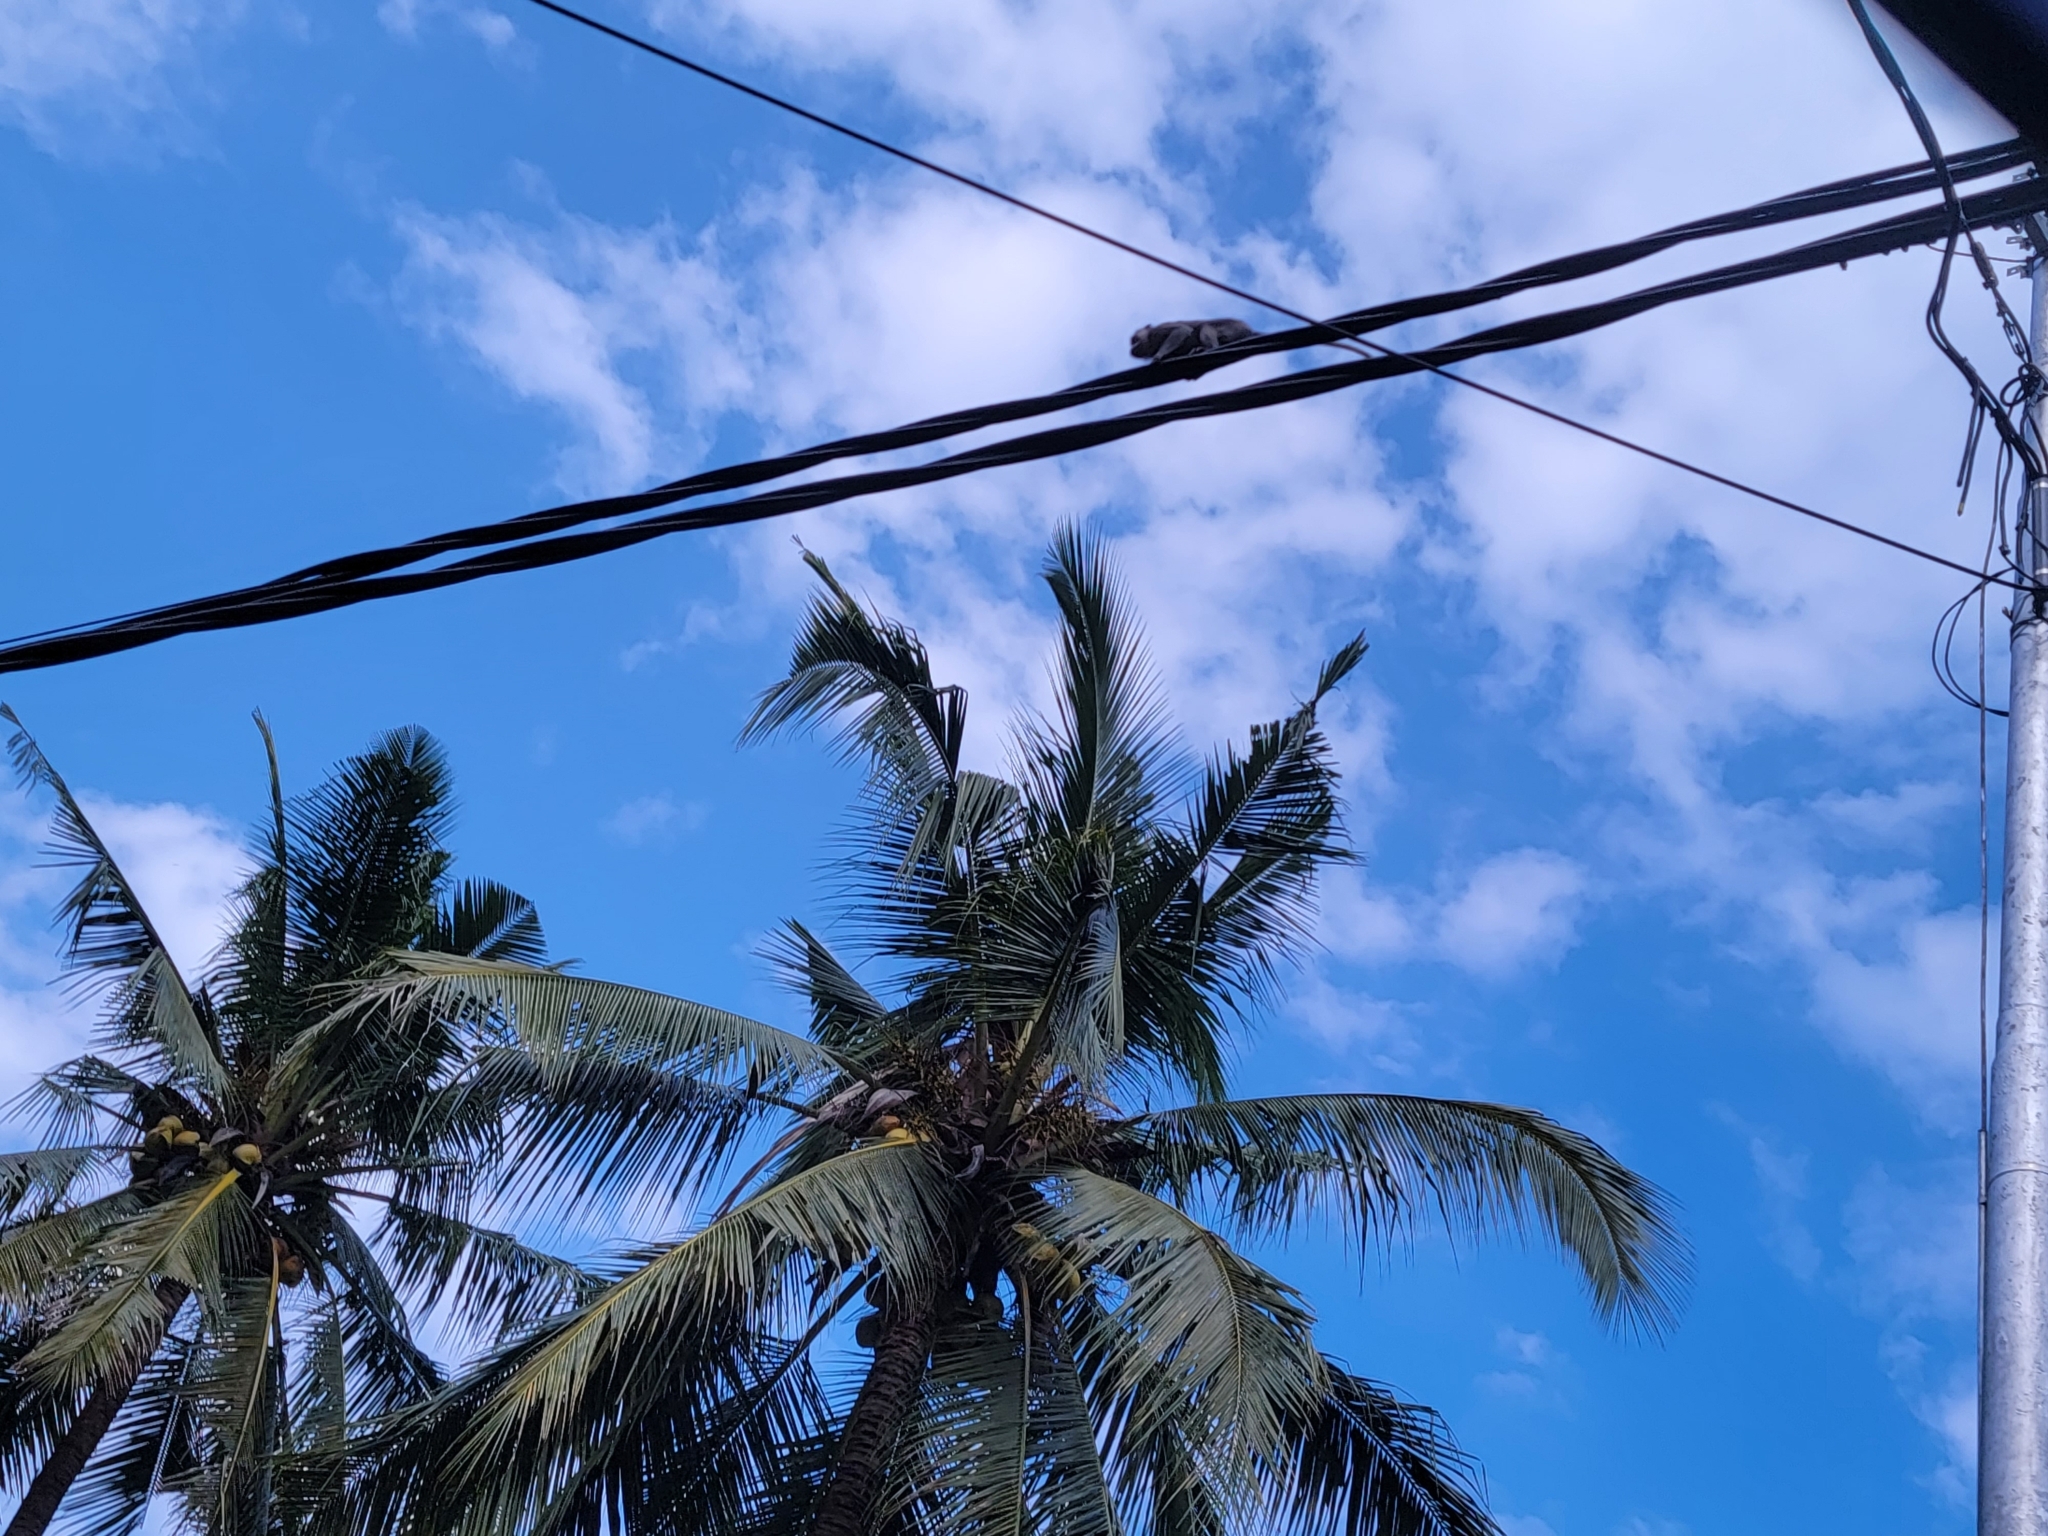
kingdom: Animalia
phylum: Chordata
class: Mammalia
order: Primates
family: Cercopithecidae
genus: Macaca
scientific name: Macaca fascicularis
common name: Crab-eating macaque
